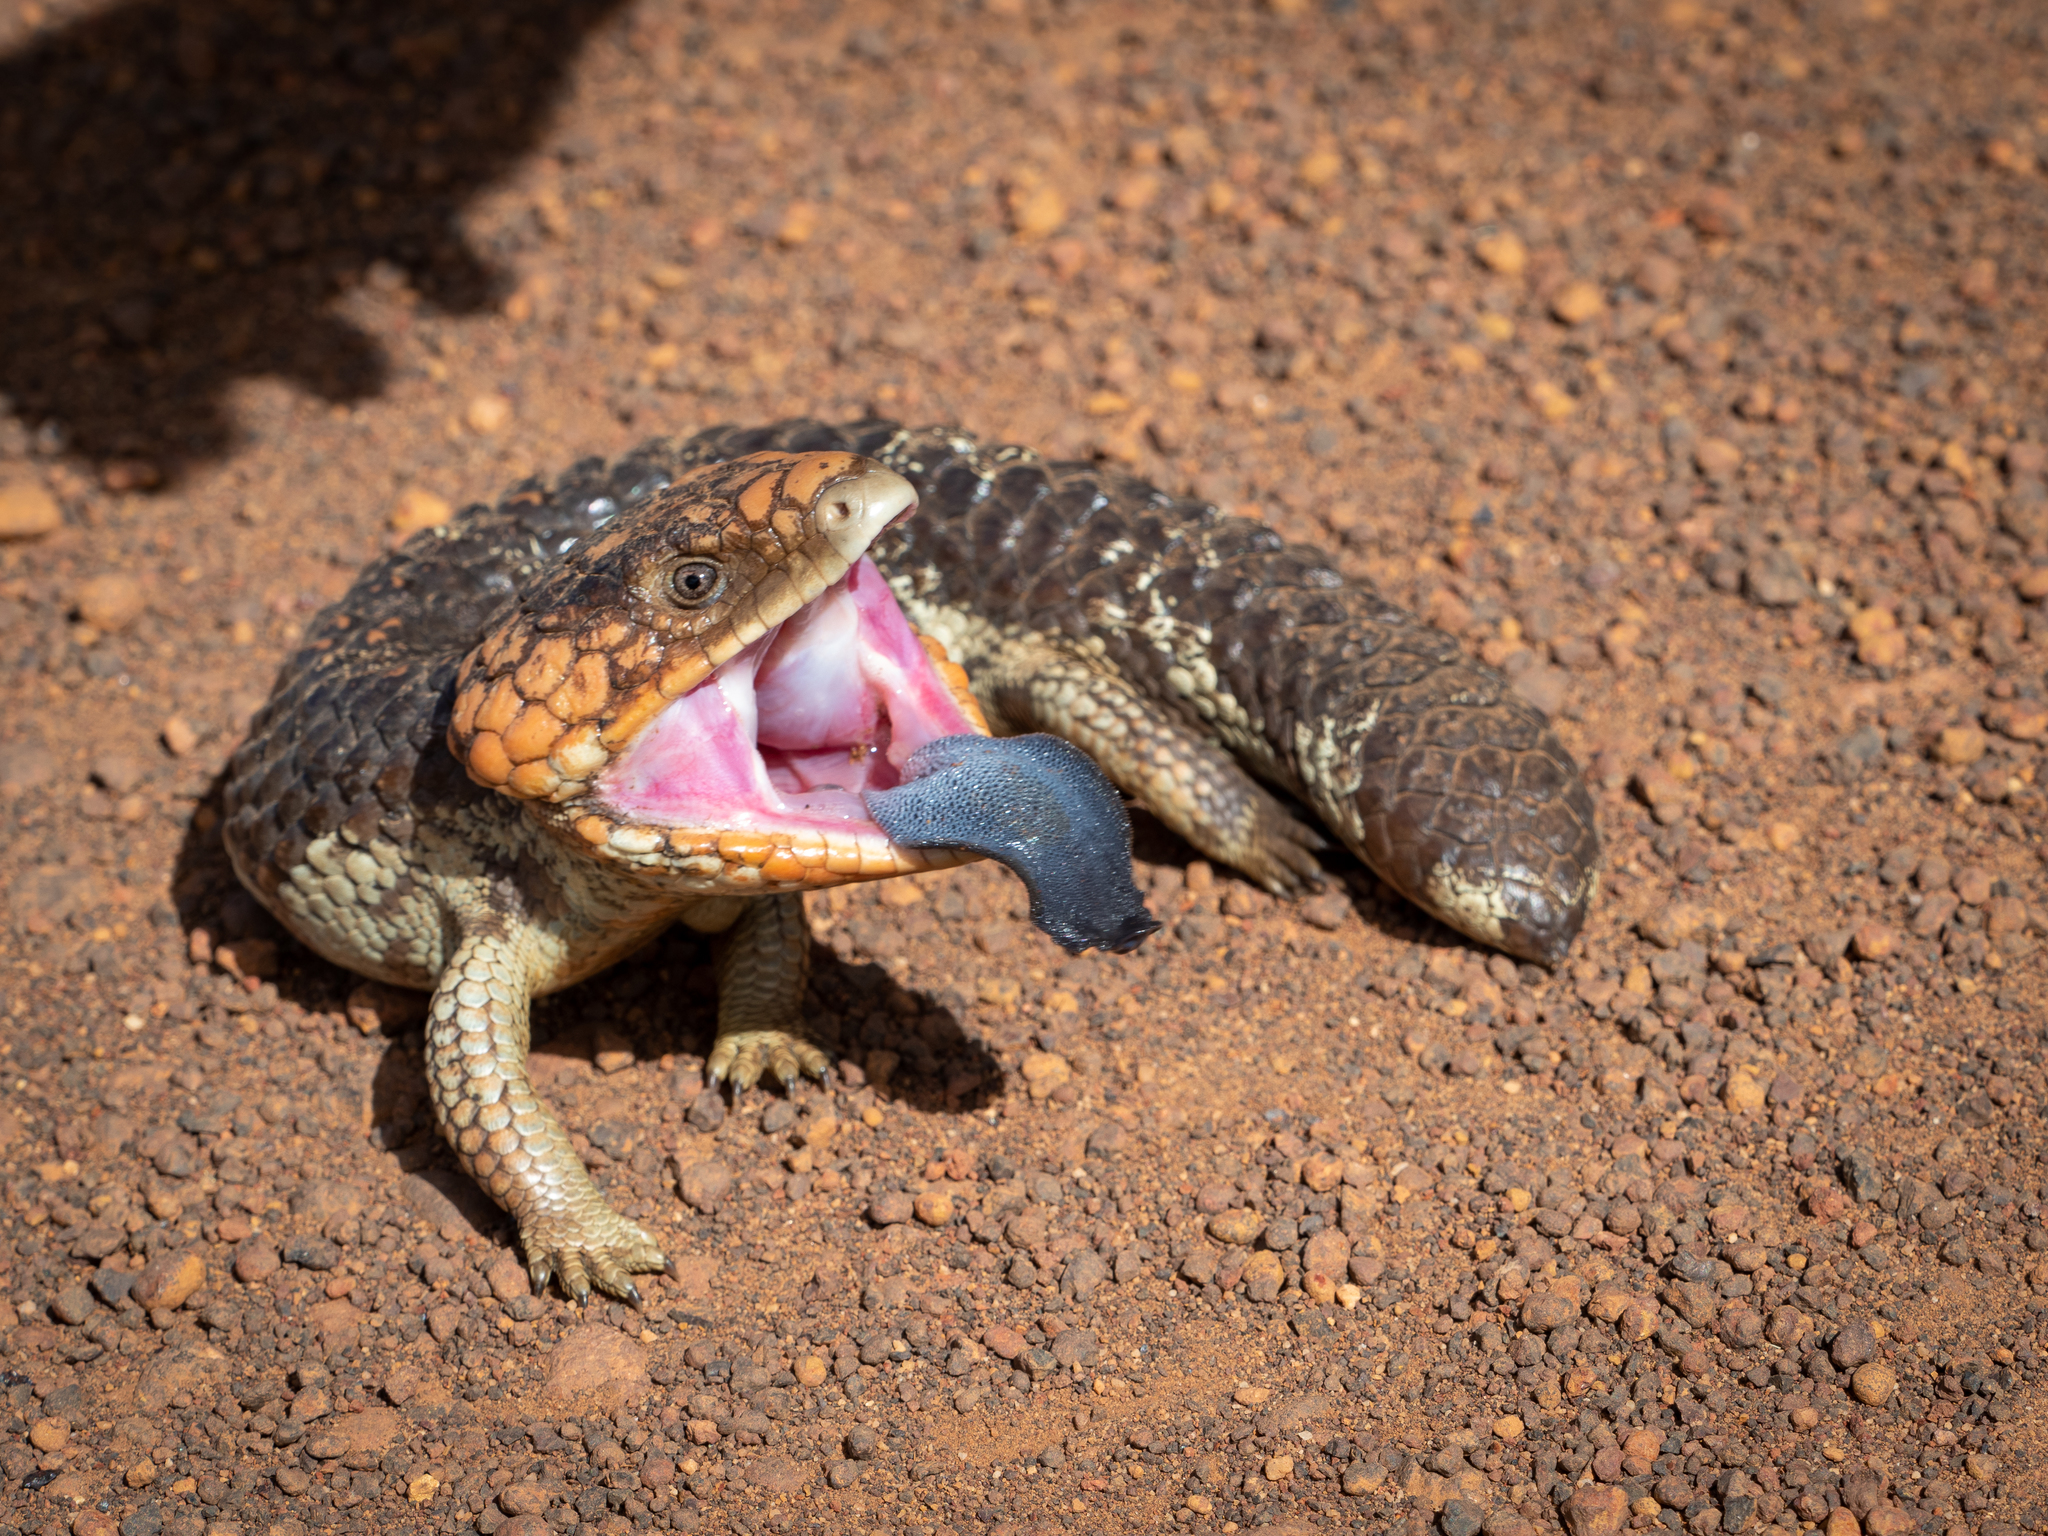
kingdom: Animalia
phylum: Chordata
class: Squamata
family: Scincidae
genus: Tiliqua
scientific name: Tiliqua rugosa
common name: Pinecone lizard
